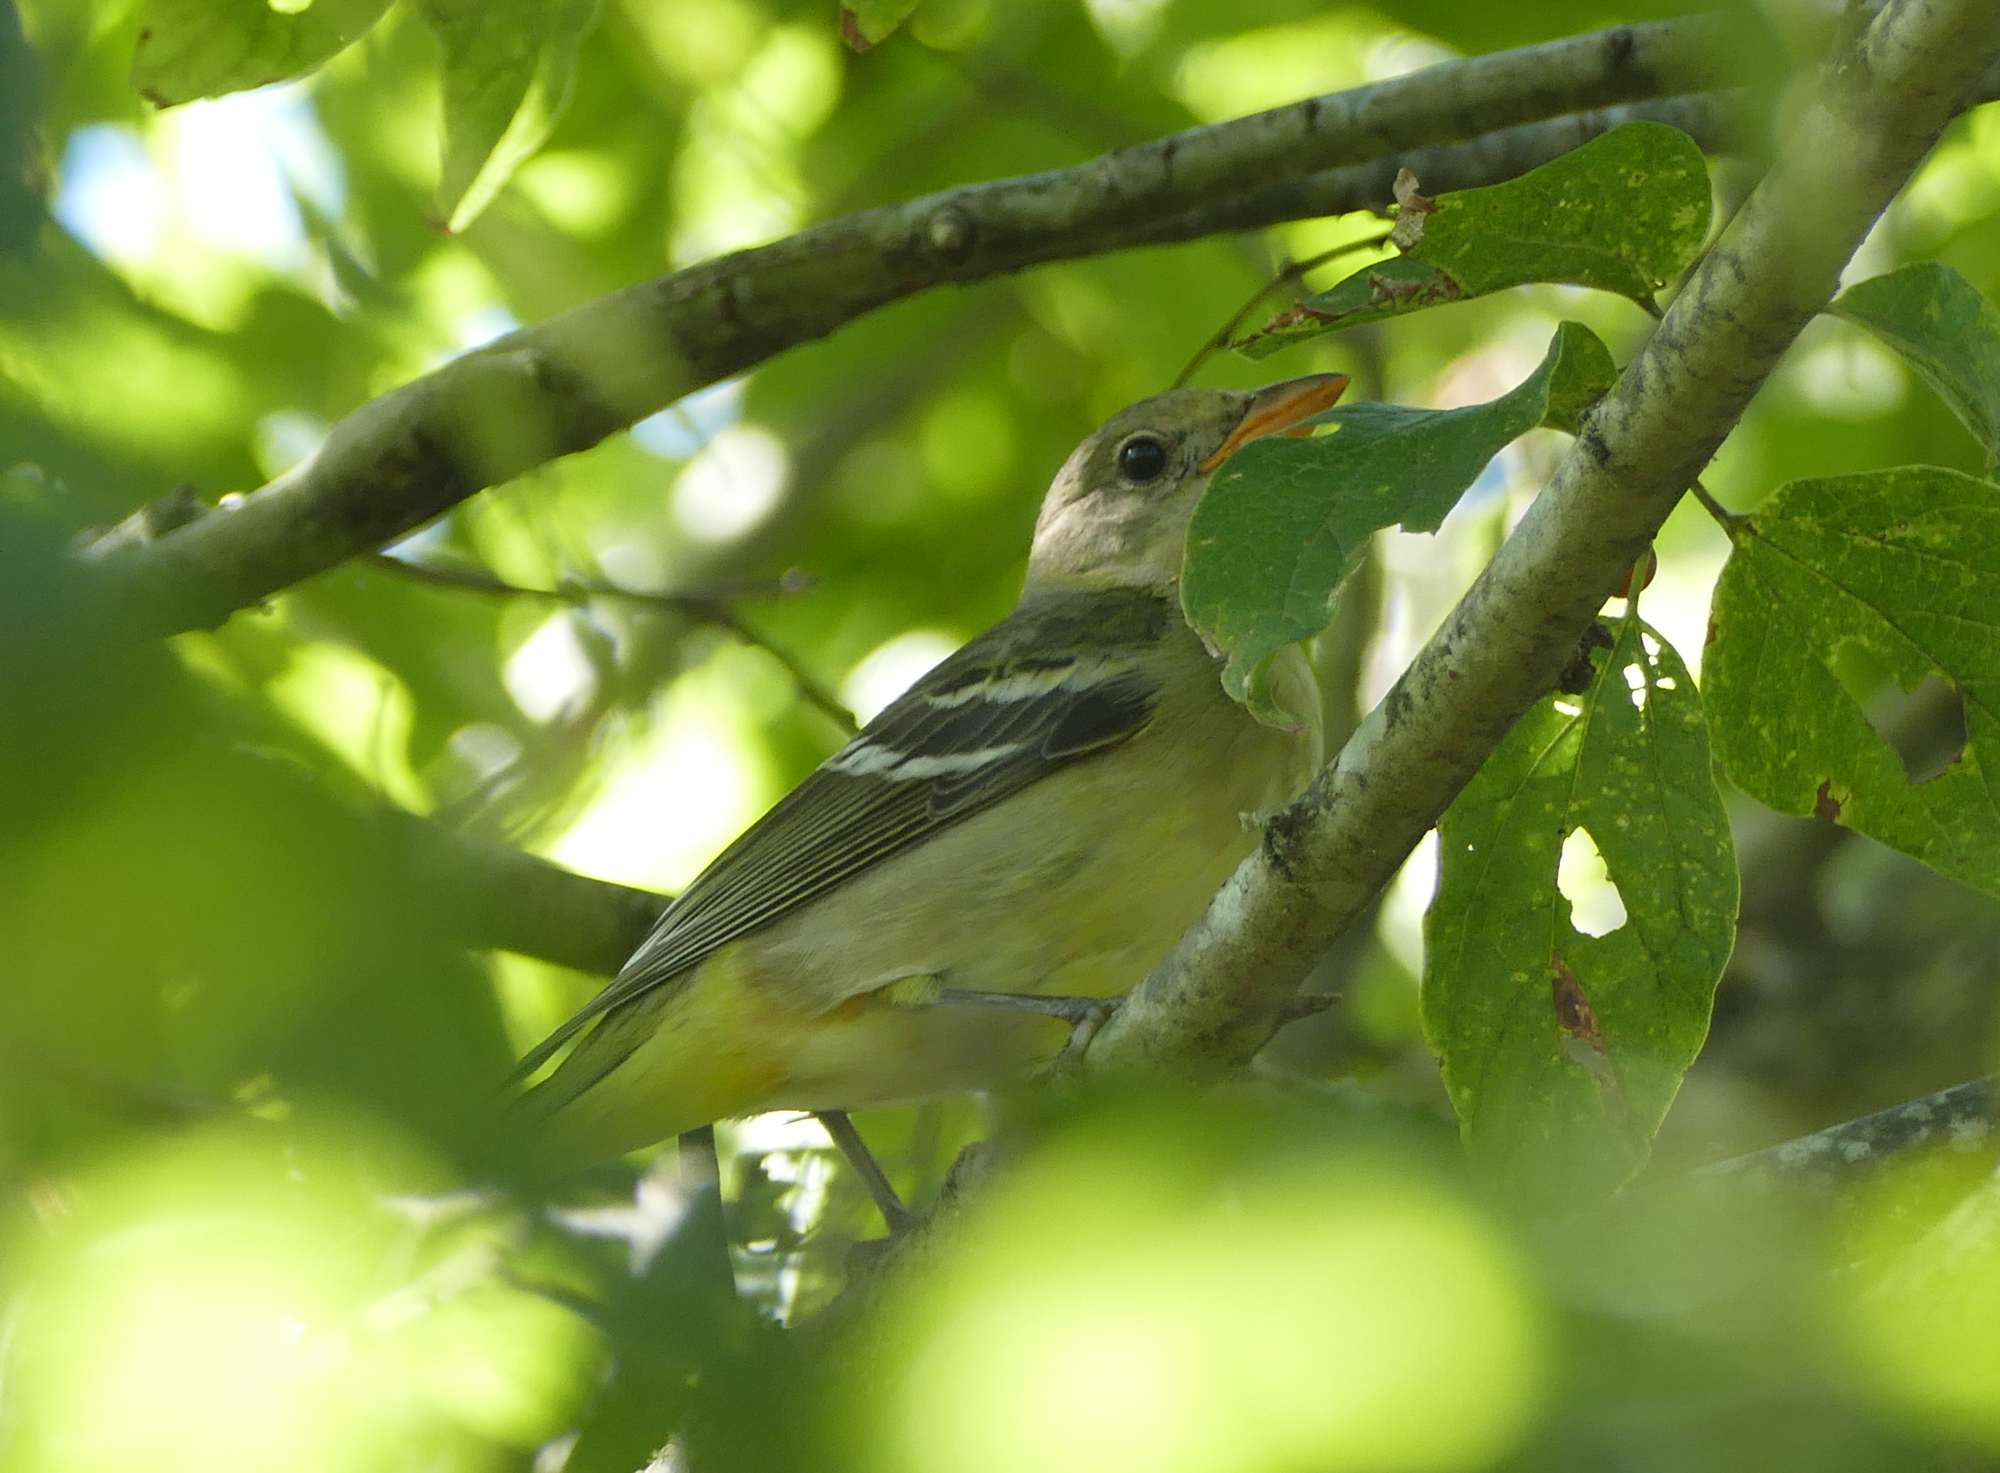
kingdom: Animalia
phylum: Chordata
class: Aves
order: Passeriformes
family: Cardinalidae
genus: Piranga
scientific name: Piranga ludoviciana
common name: Western tanager
